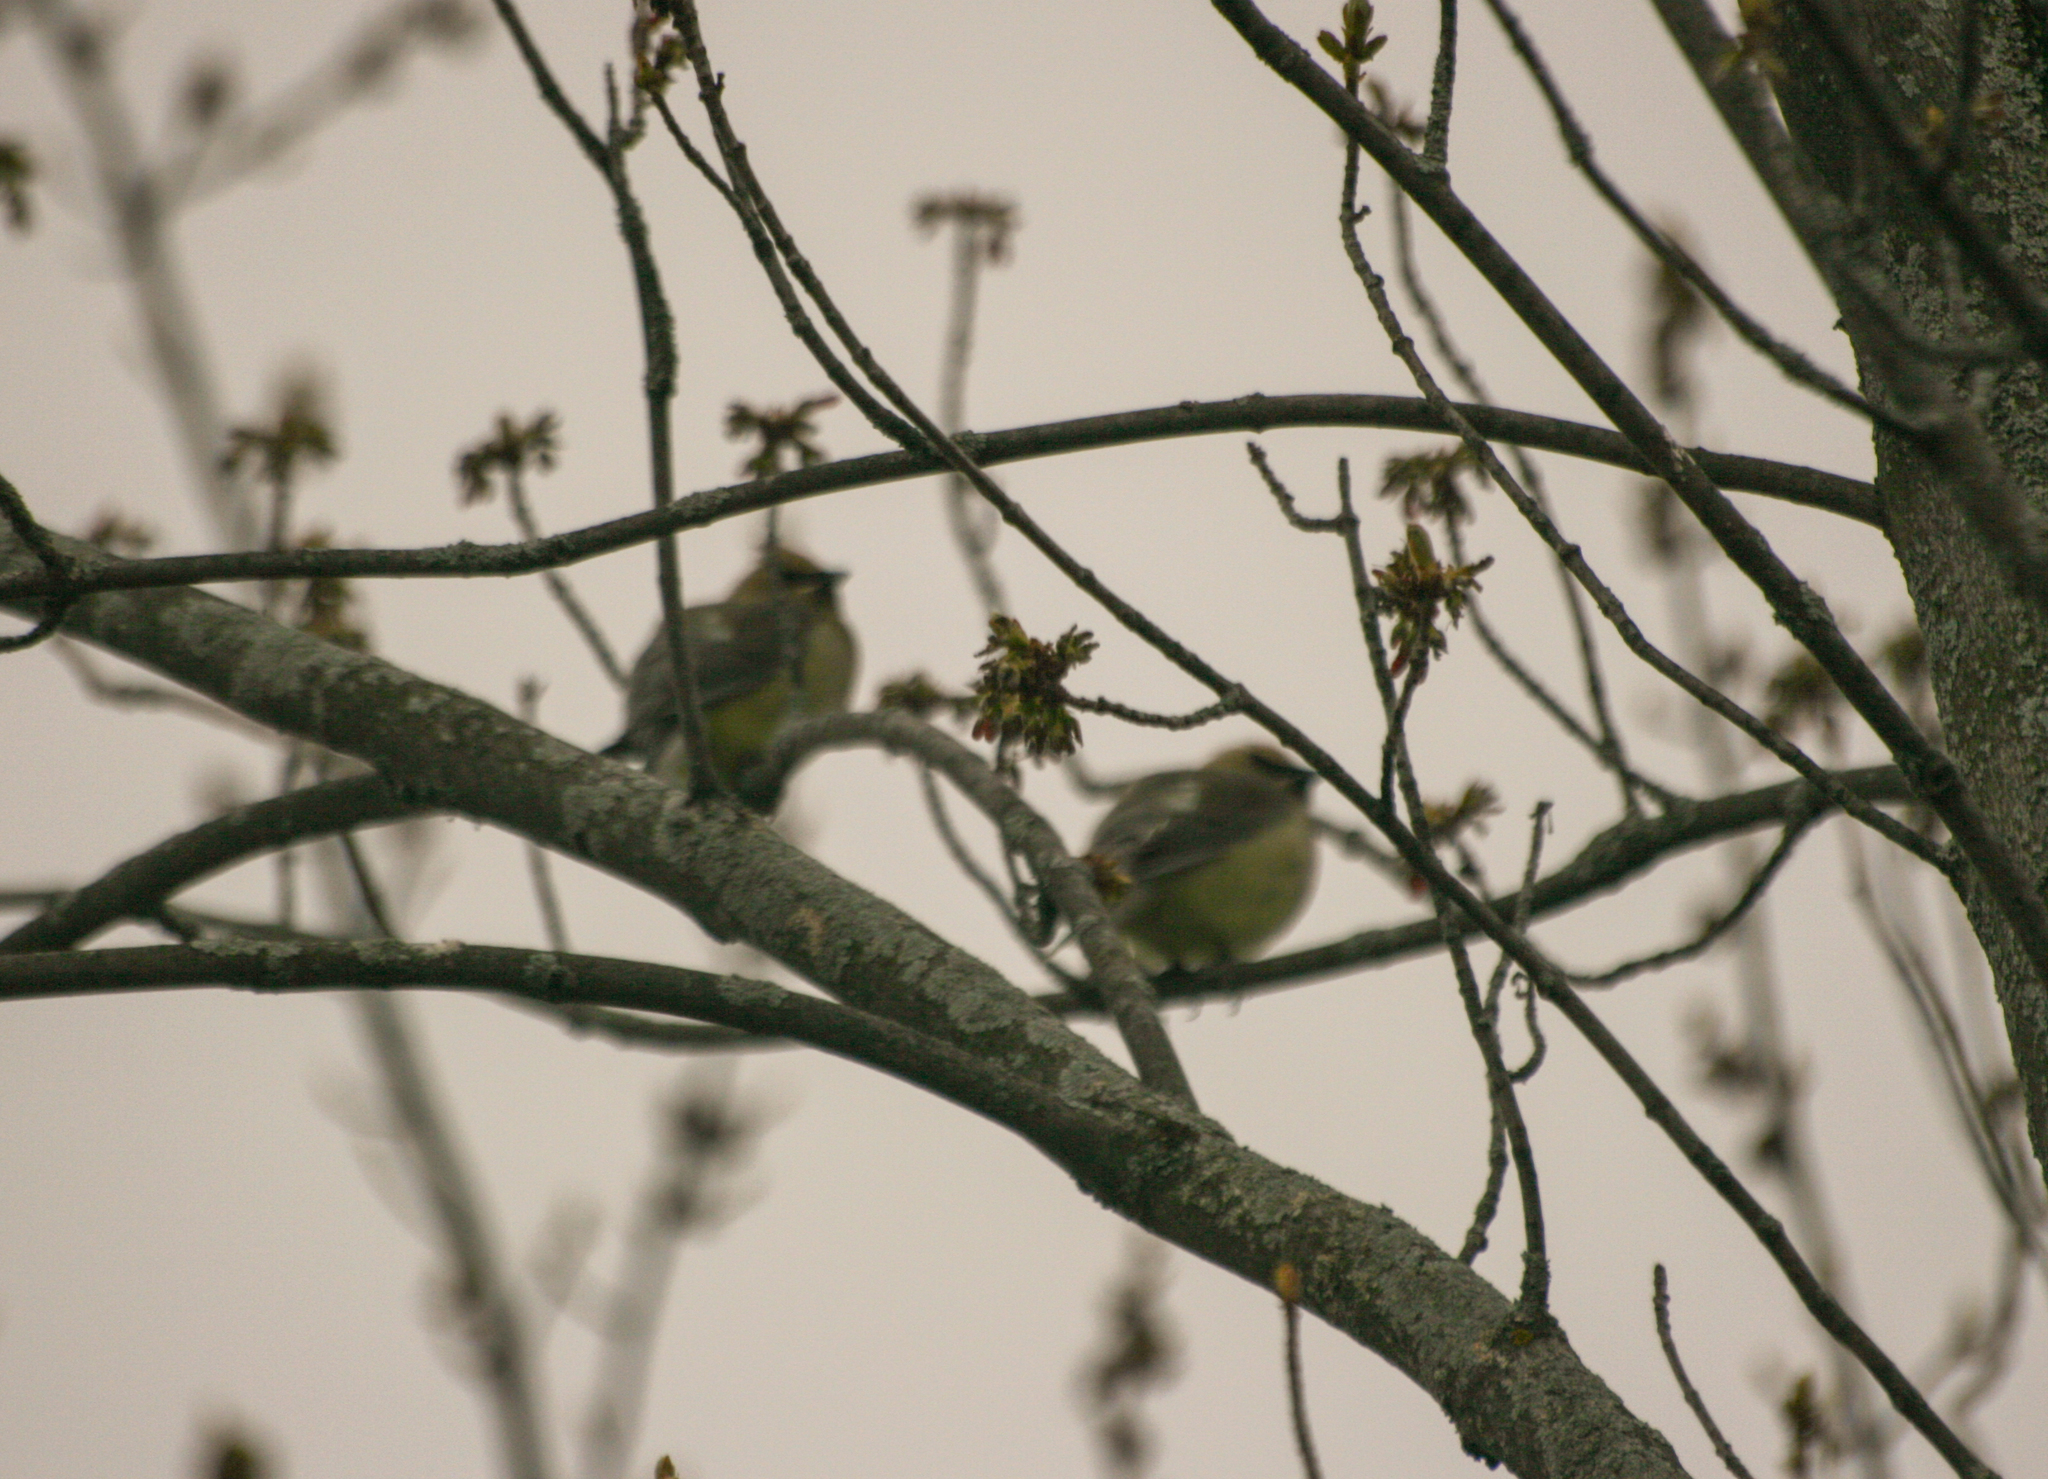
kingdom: Animalia
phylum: Chordata
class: Aves
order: Passeriformes
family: Bombycillidae
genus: Bombycilla
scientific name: Bombycilla cedrorum
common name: Cedar waxwing
